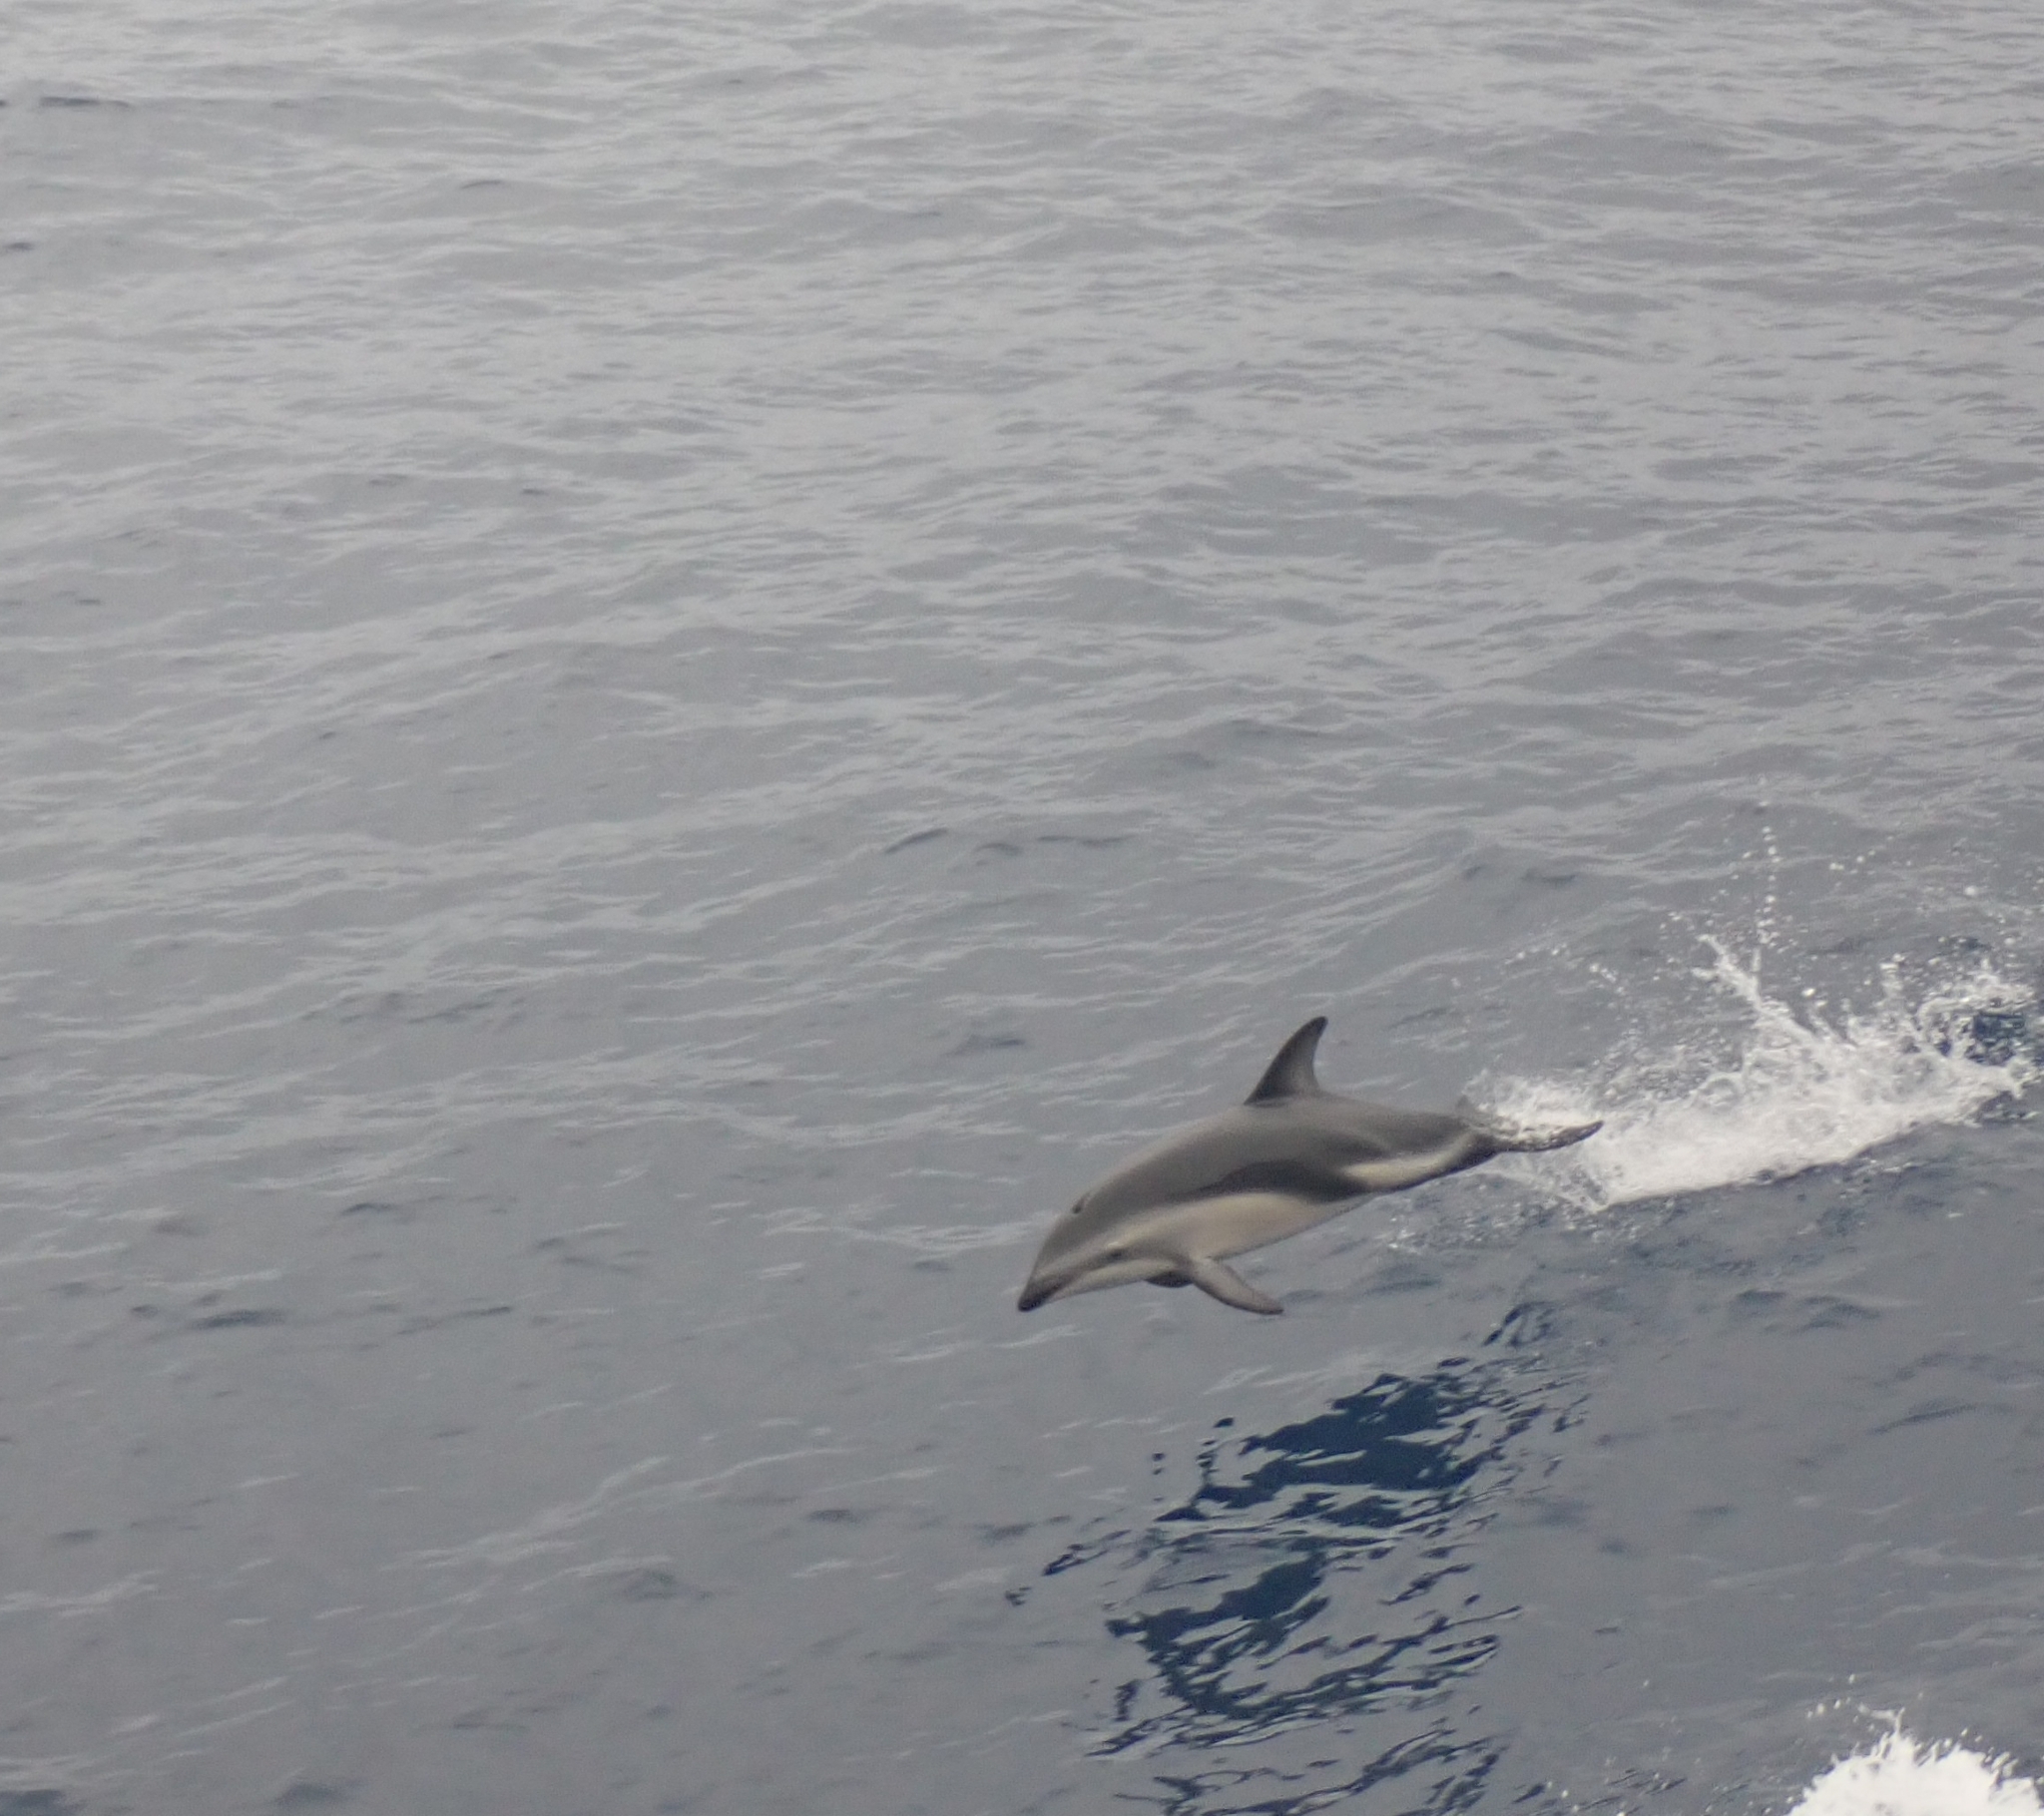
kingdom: Animalia
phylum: Chordata
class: Mammalia
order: Cetacea
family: Delphinidae
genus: Lagenorhynchus
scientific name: Lagenorhynchus obscurus
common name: Dusky dolphin
